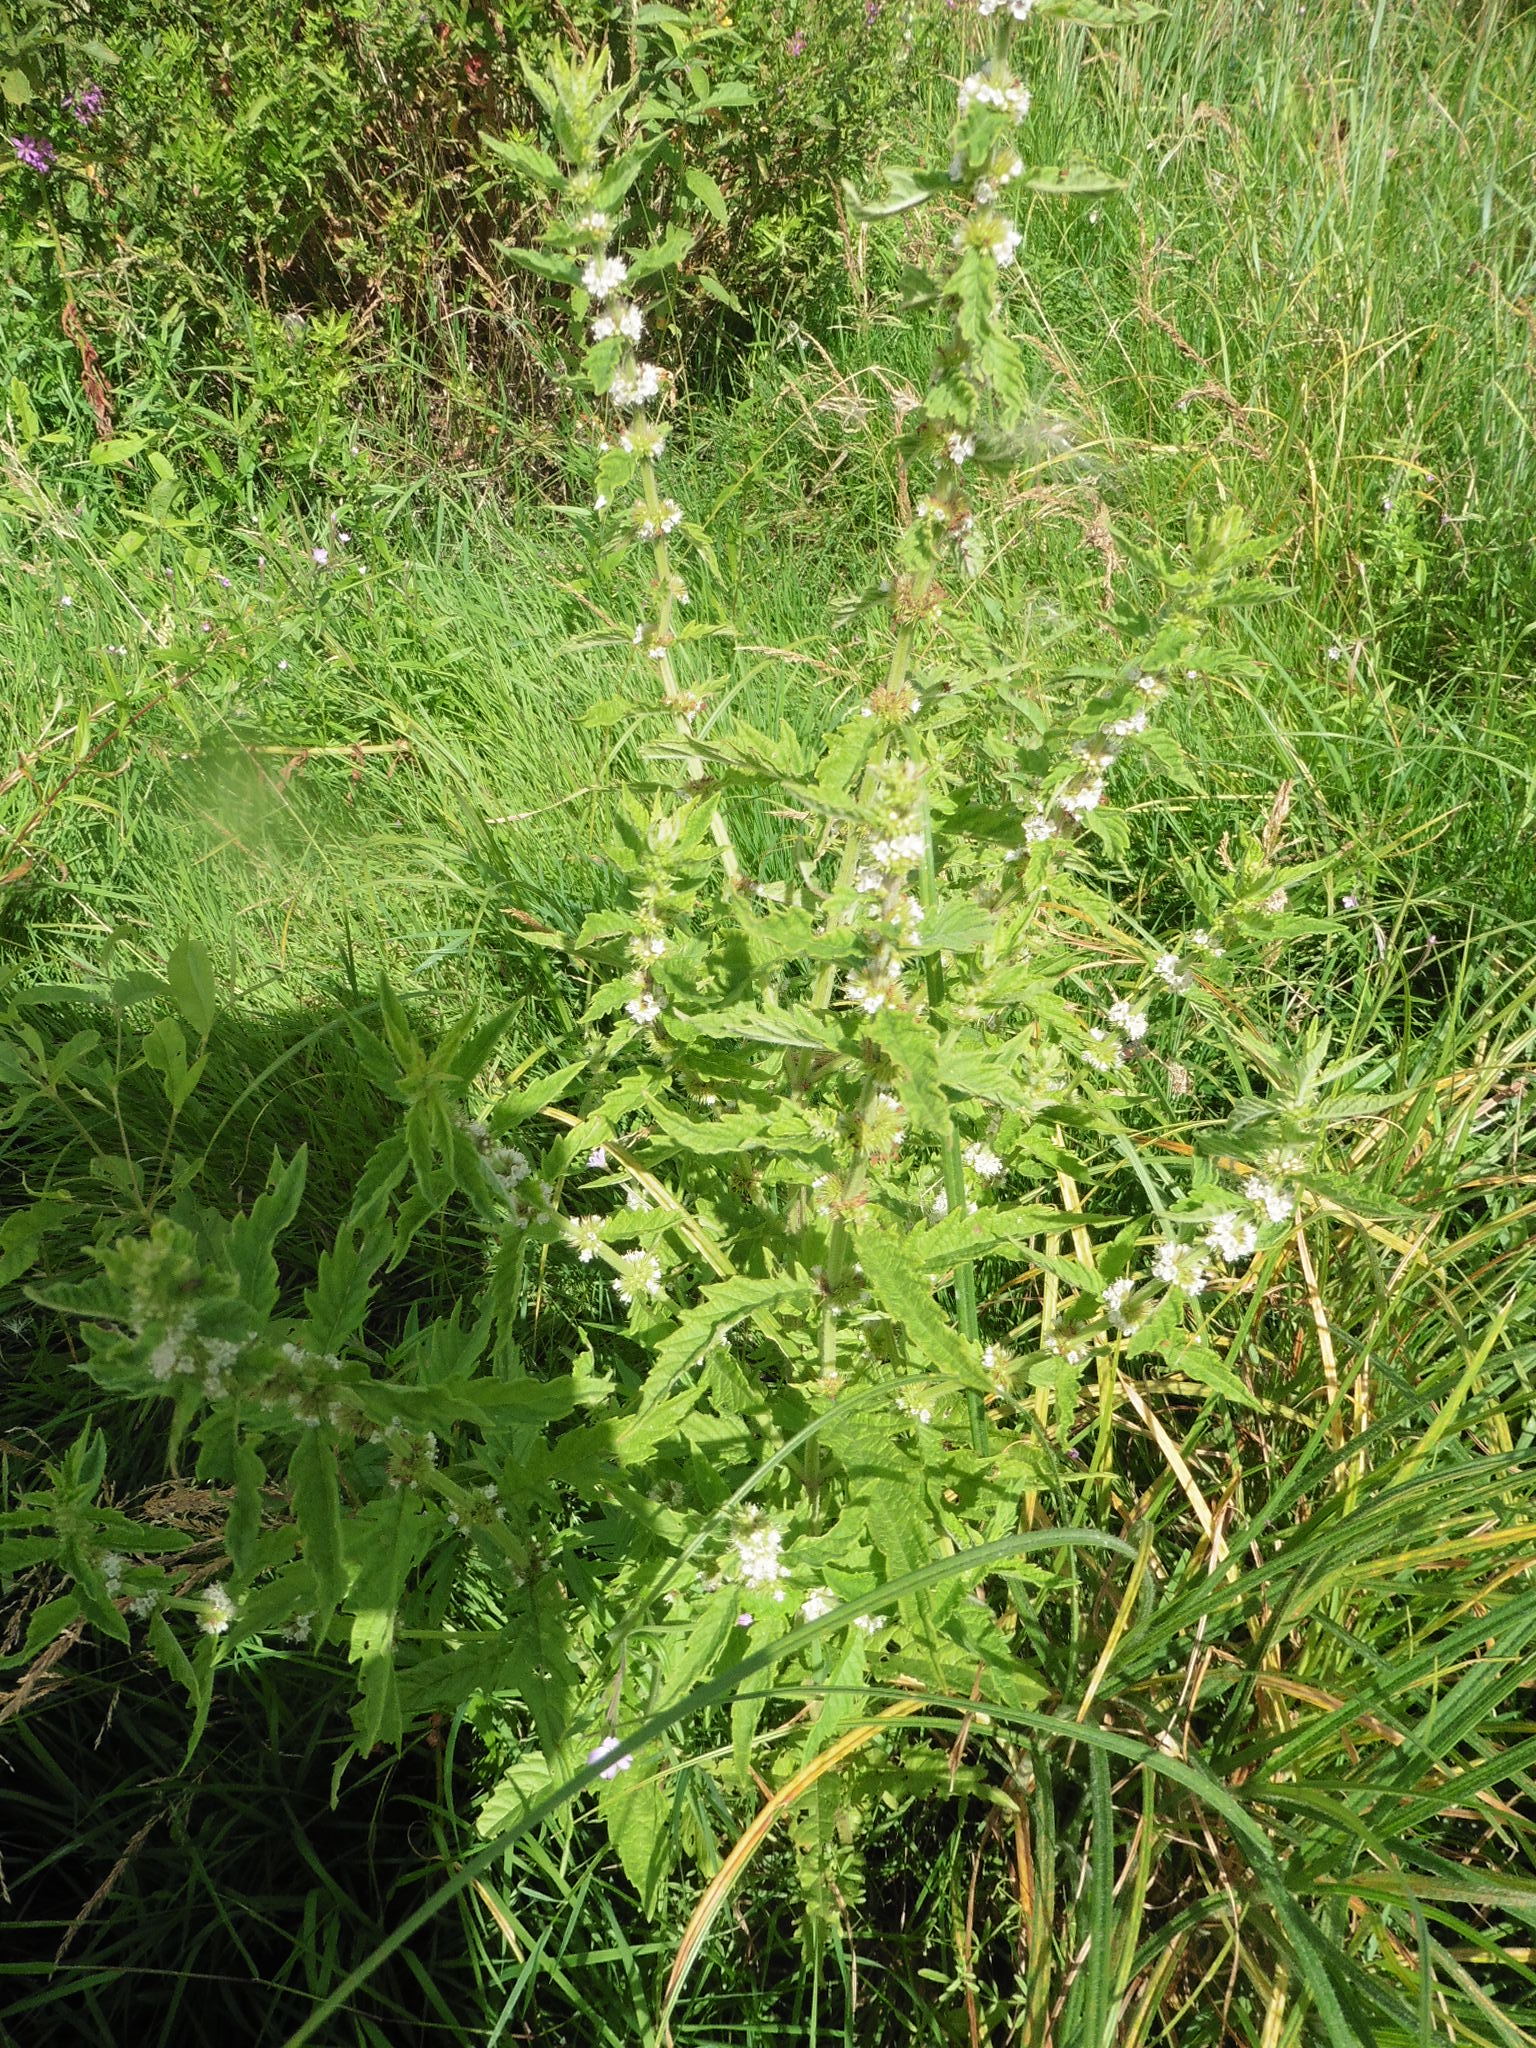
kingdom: Plantae
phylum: Tracheophyta
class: Magnoliopsida
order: Lamiales
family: Lamiaceae
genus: Lycopus
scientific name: Lycopus europaeus
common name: European bugleweed
